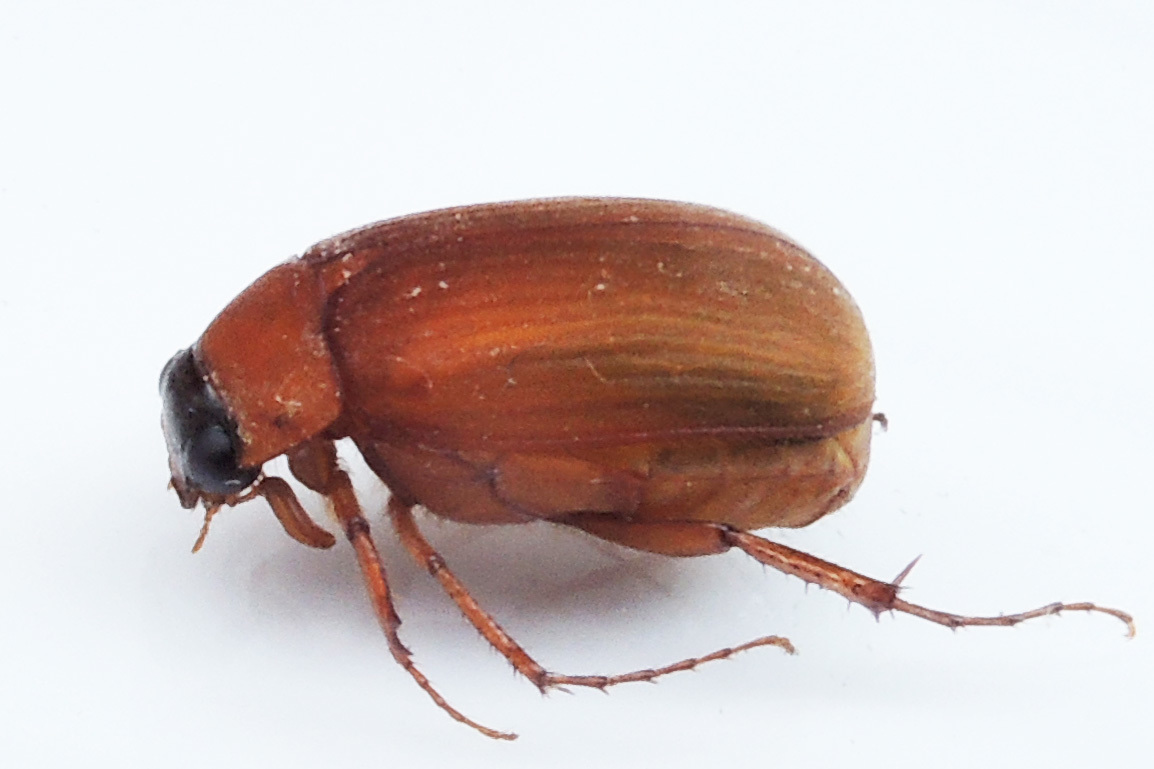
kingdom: Animalia
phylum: Arthropoda
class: Insecta
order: Coleoptera
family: Scarabaeidae
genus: Nipponoserica
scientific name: Nipponoserica peregrina
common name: Scarab beetle
